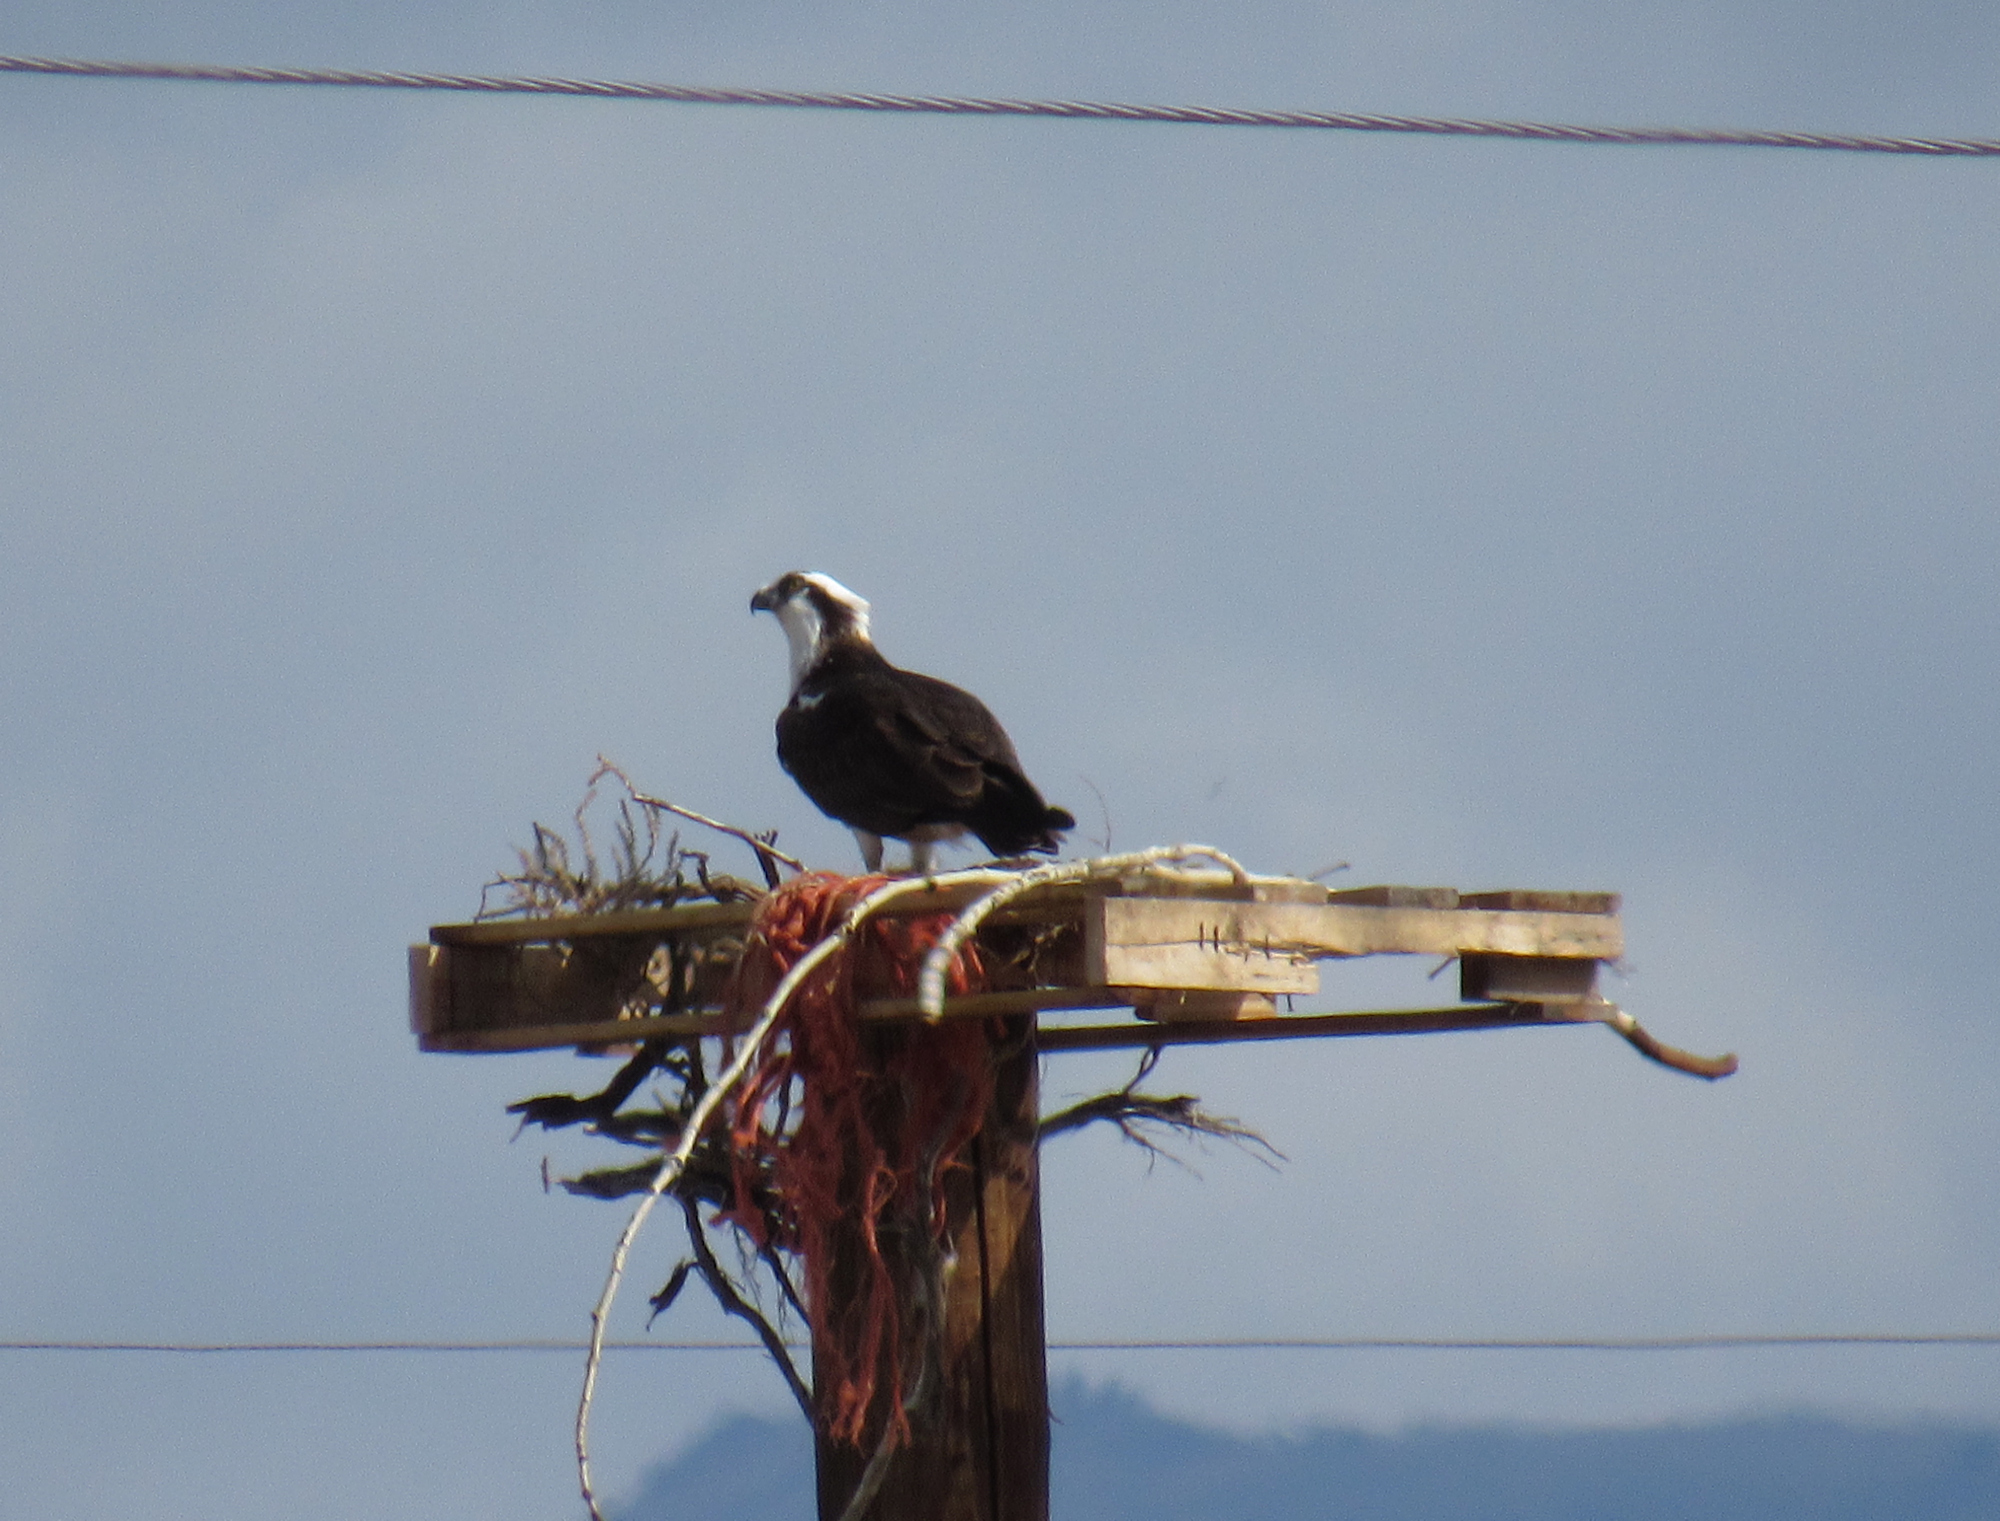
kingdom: Animalia
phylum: Chordata
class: Aves
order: Accipitriformes
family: Pandionidae
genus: Pandion
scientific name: Pandion haliaetus
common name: Osprey
